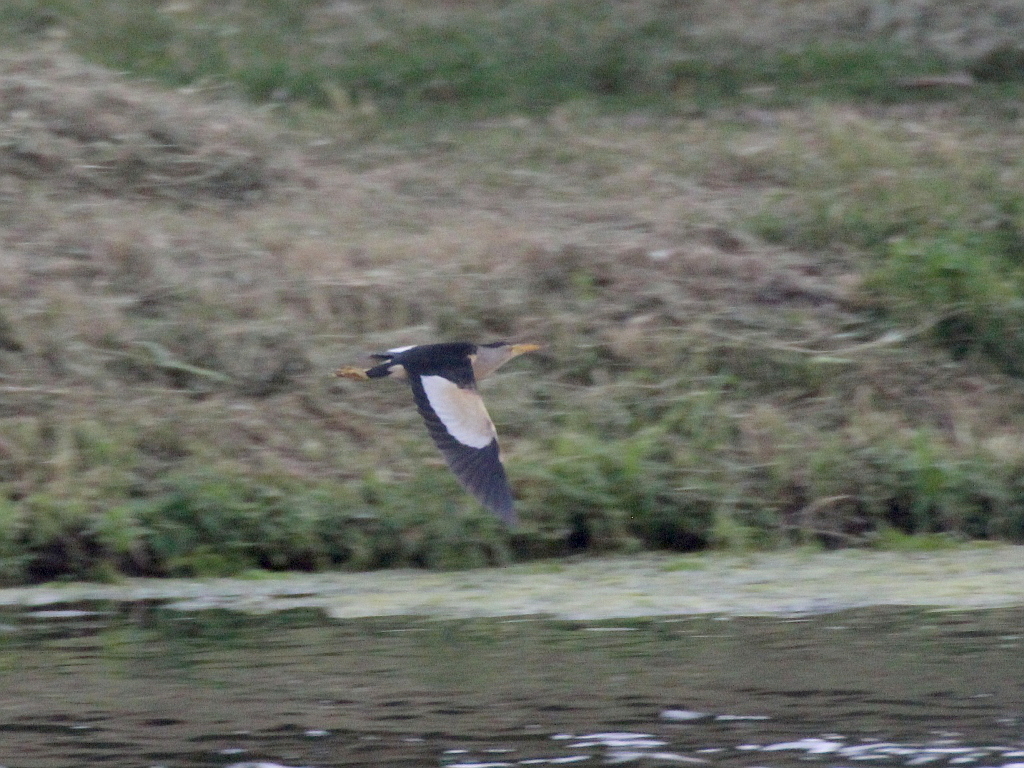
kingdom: Animalia
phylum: Chordata
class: Aves
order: Pelecaniformes
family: Ardeidae
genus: Ixobrychus
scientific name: Ixobrychus minutus
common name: Little bittern
